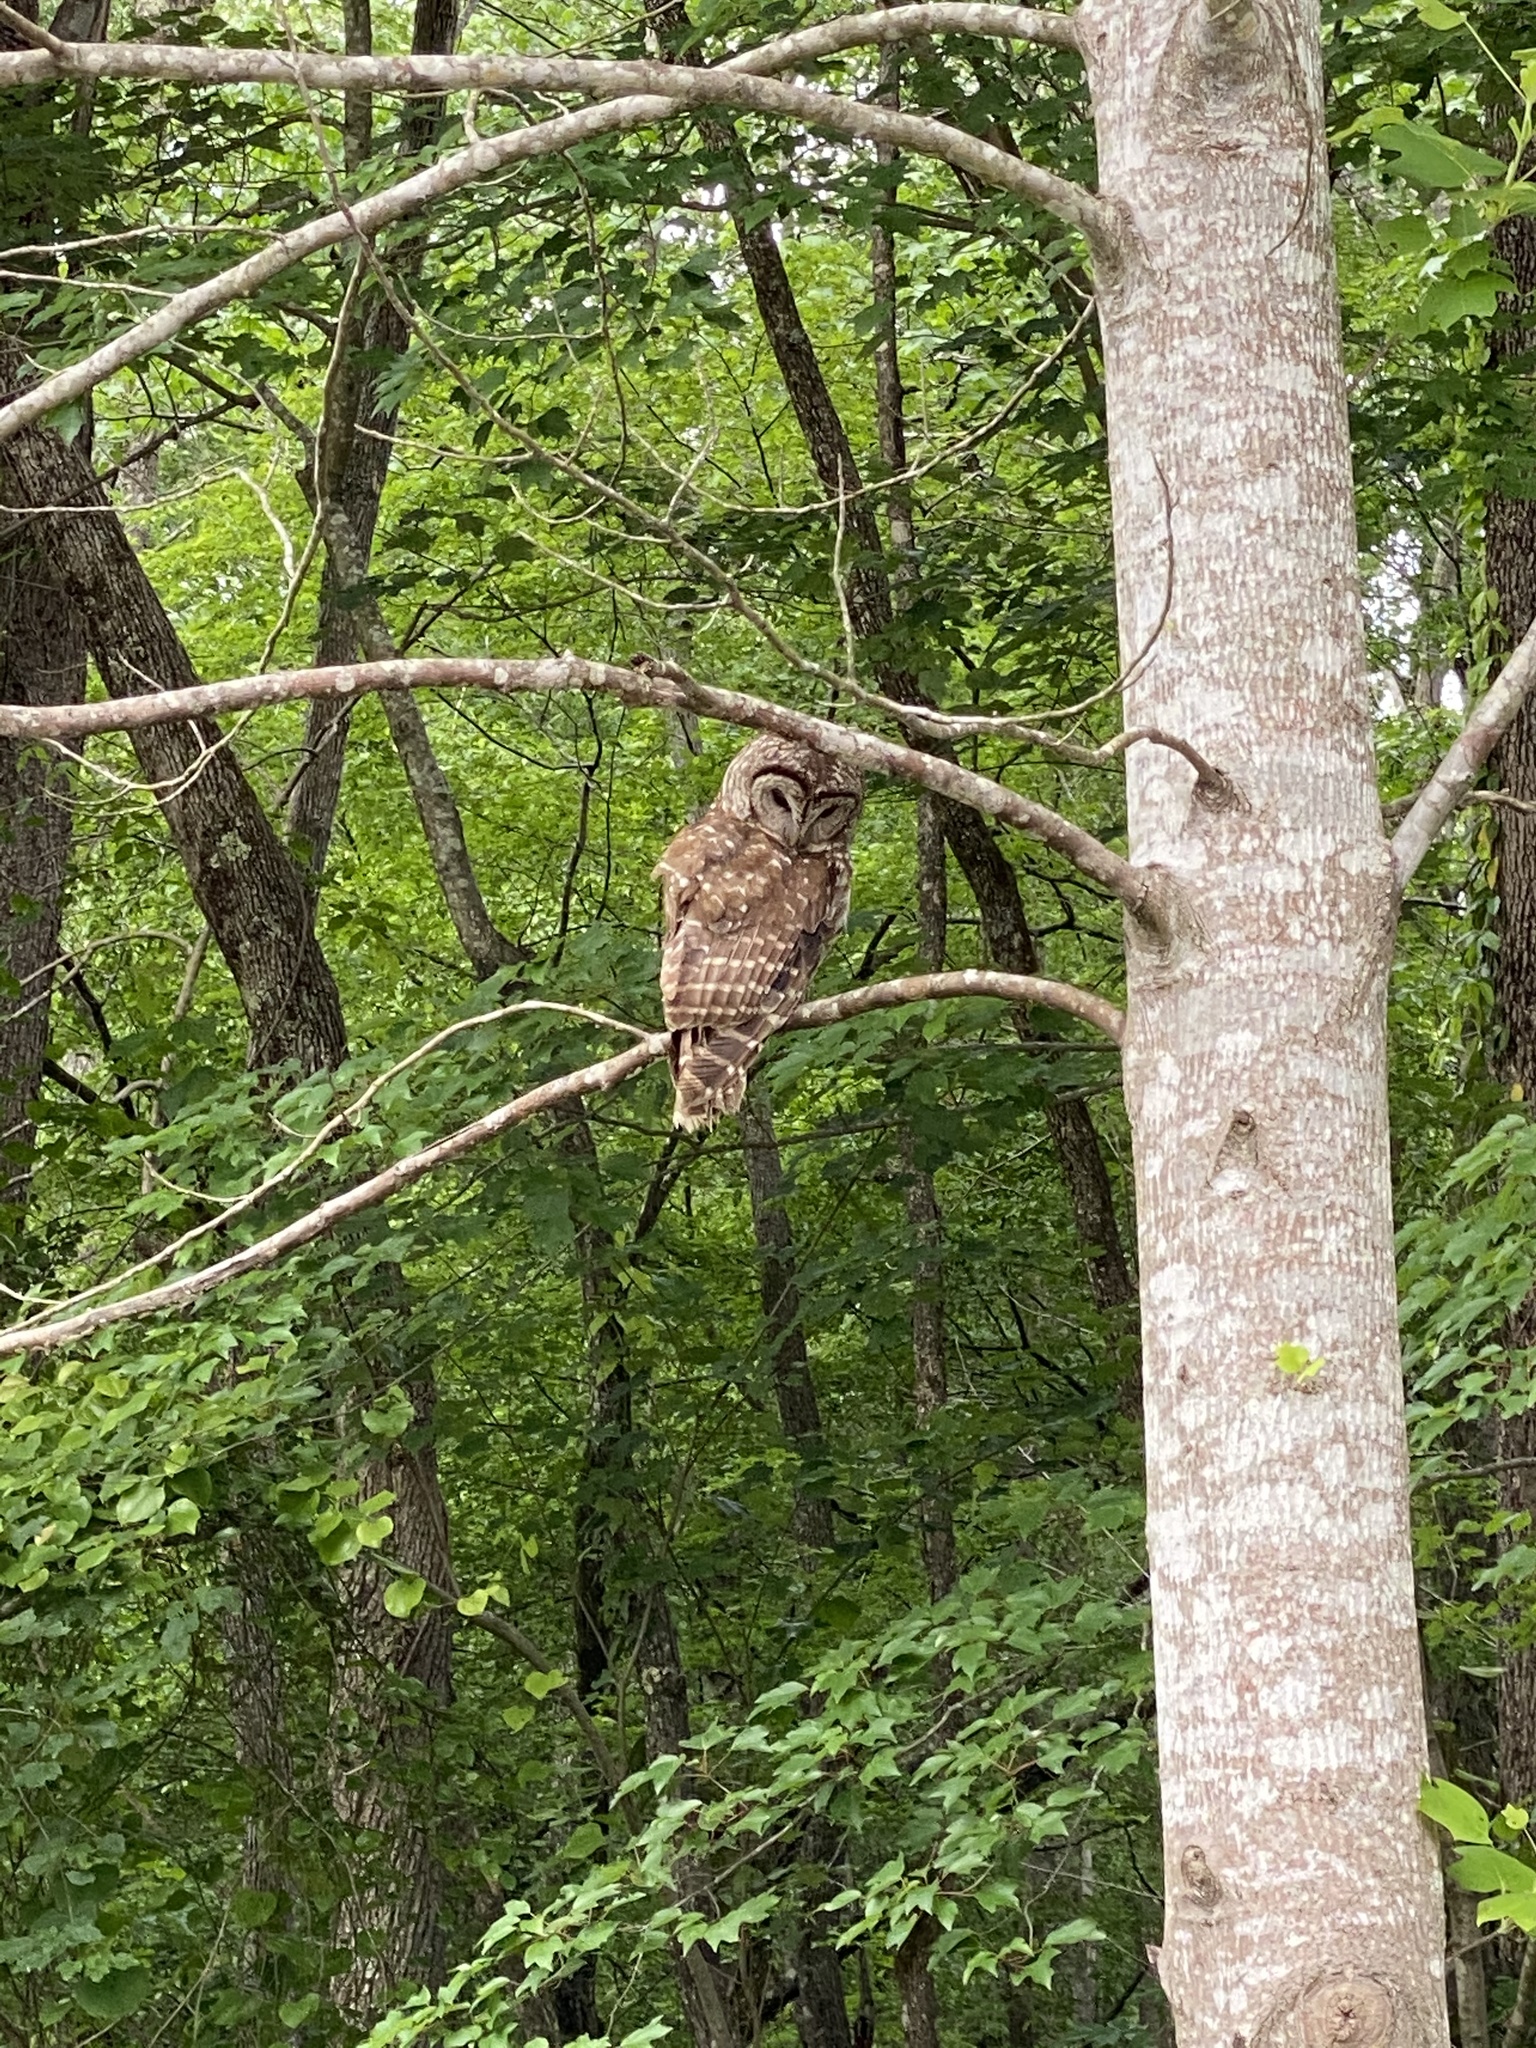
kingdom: Animalia
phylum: Chordata
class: Aves
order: Strigiformes
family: Strigidae
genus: Strix
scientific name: Strix varia
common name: Barred owl
